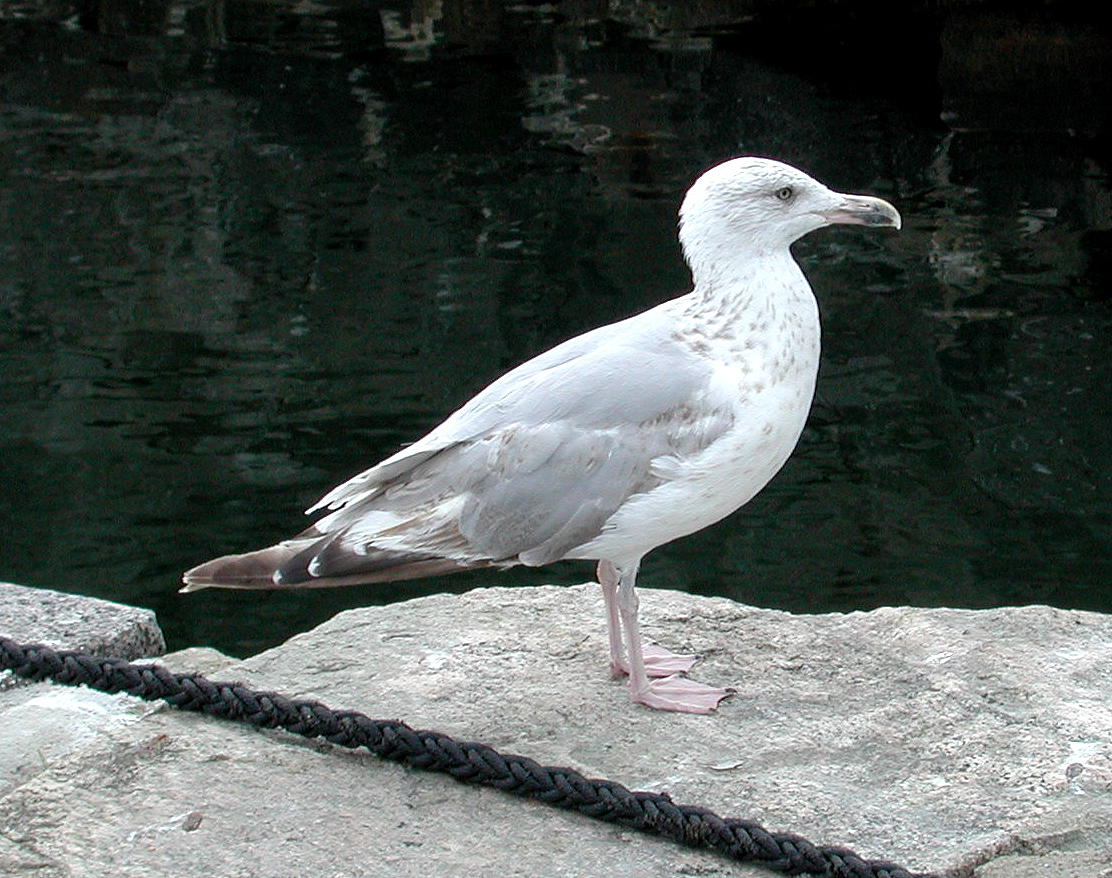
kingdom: Animalia
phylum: Chordata
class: Aves
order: Charadriiformes
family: Laridae
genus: Larus
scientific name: Larus argentatus
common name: Herring gull
